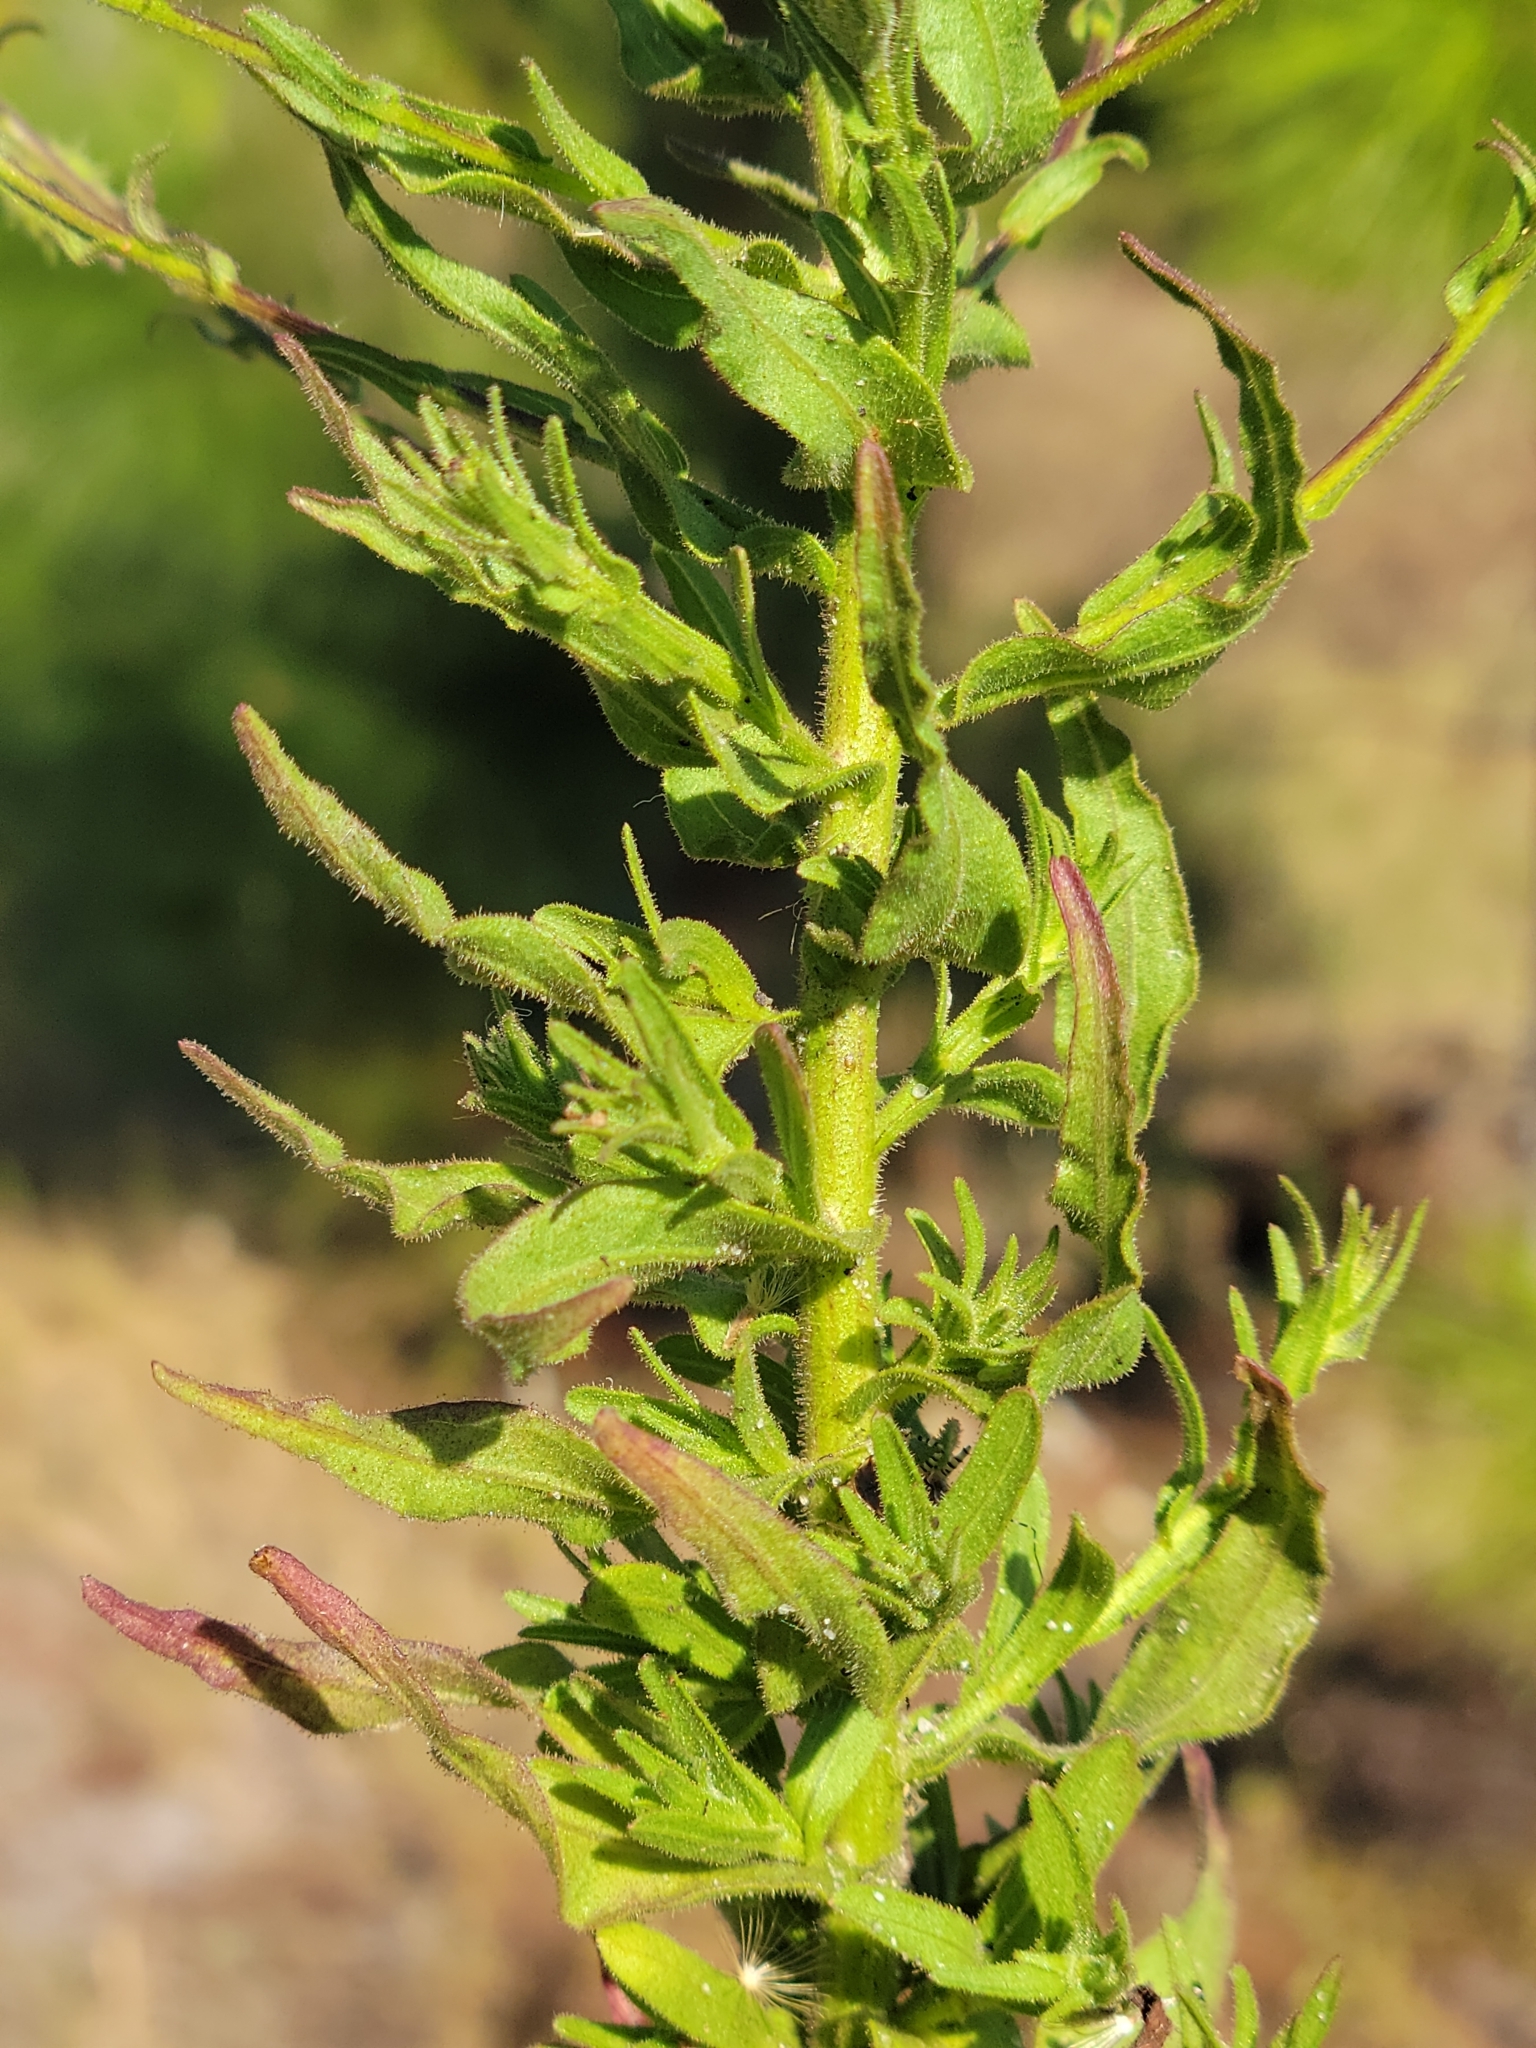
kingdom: Plantae
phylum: Tracheophyta
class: Magnoliopsida
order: Asterales
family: Asteraceae
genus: Chrysopsis
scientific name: Chrysopsis lanuginosa
